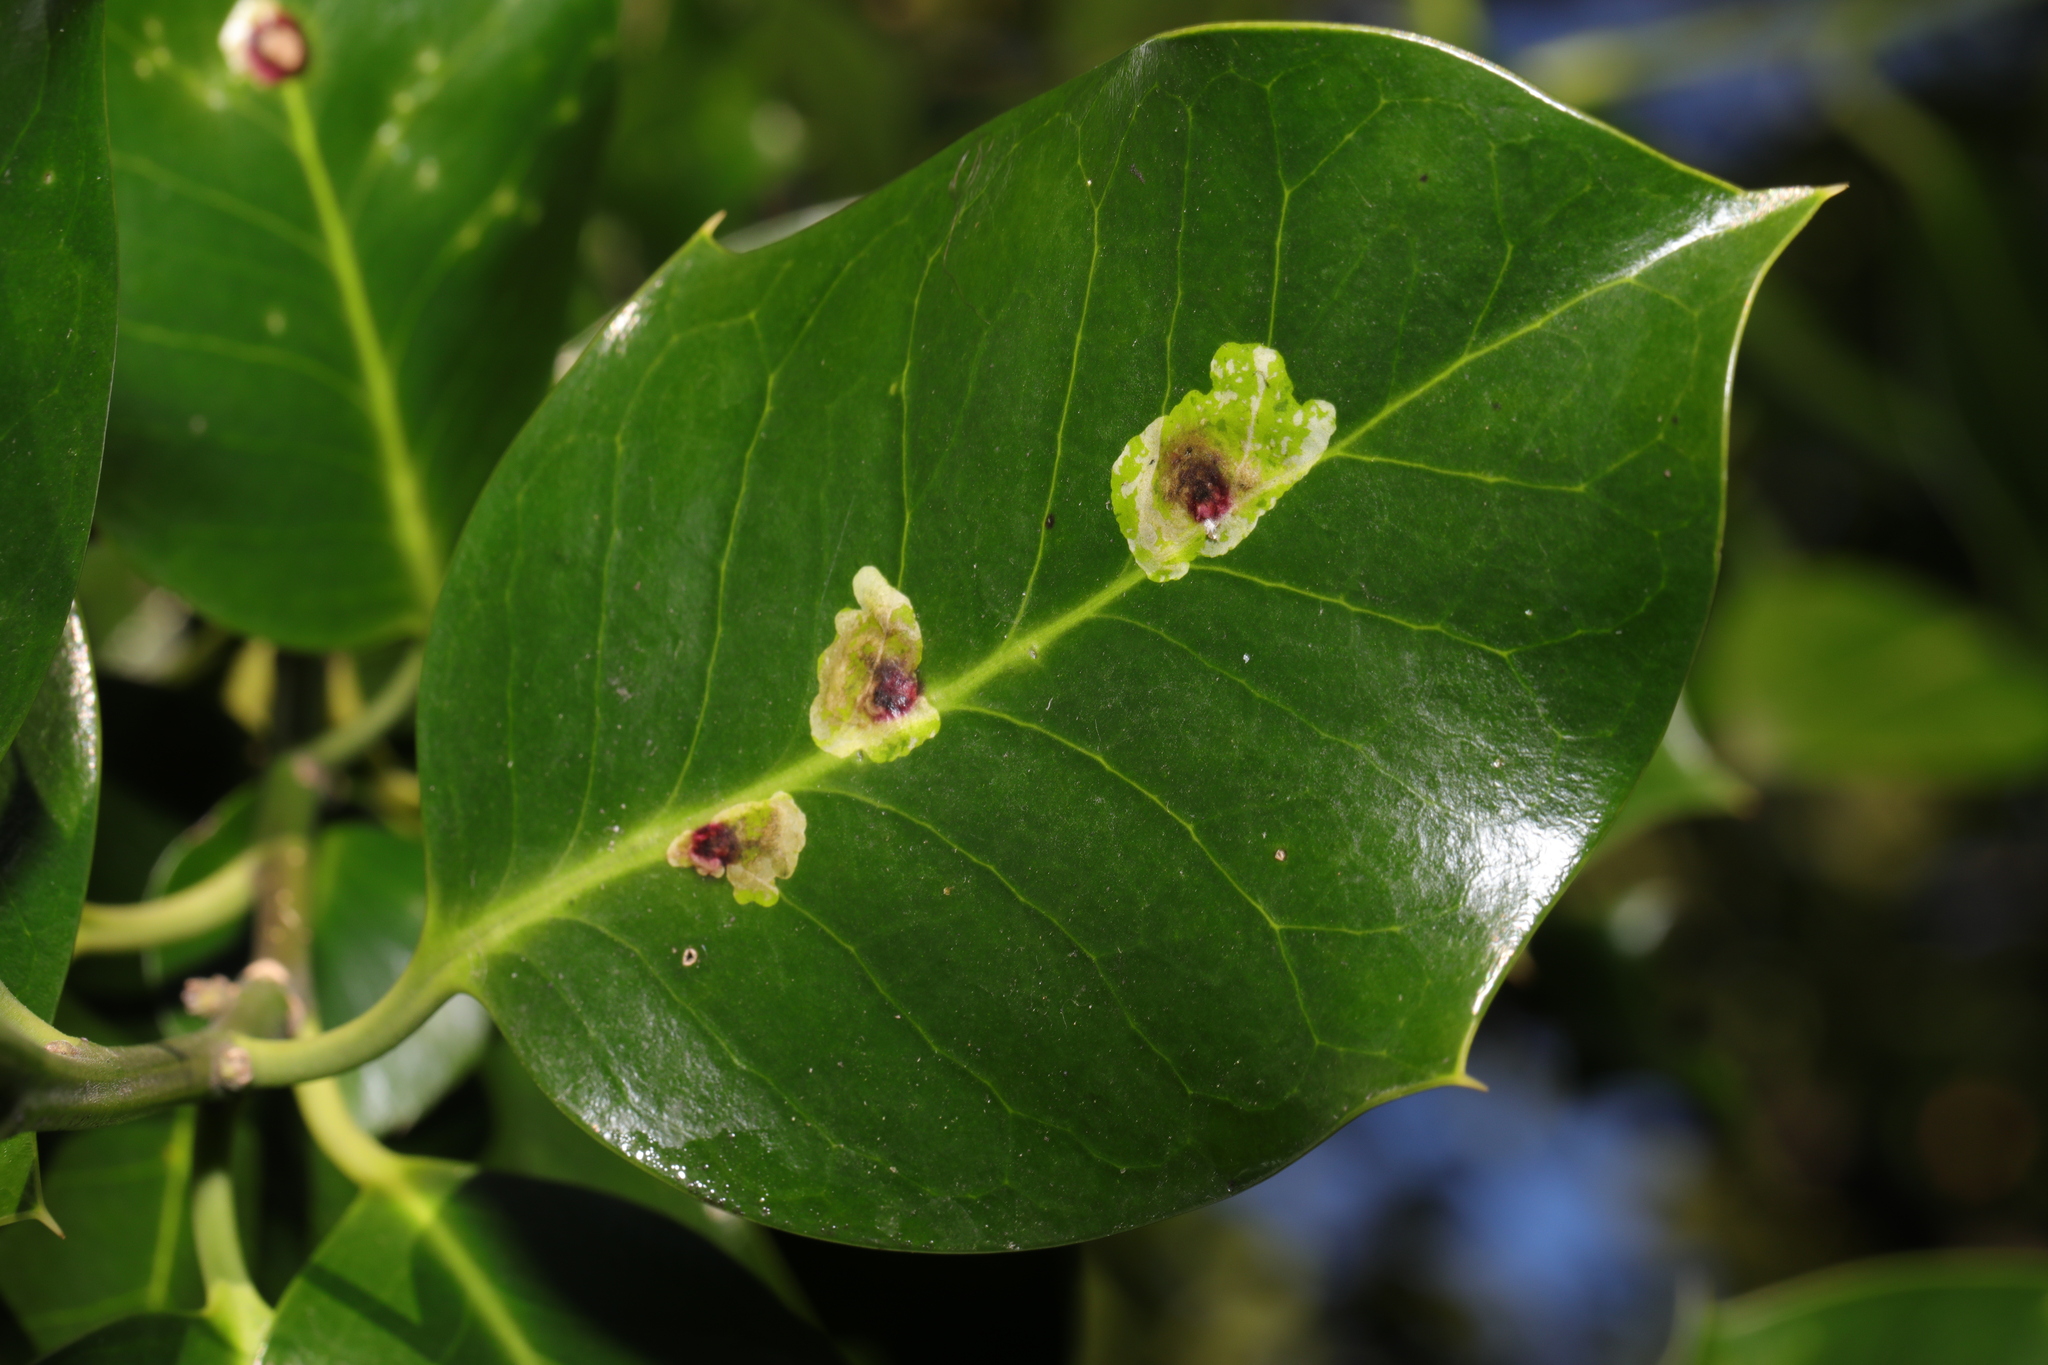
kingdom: Animalia
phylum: Arthropoda
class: Insecta
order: Diptera
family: Agromyzidae
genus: Phytomyza
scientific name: Phytomyza ilicis
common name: Holly leafminer
